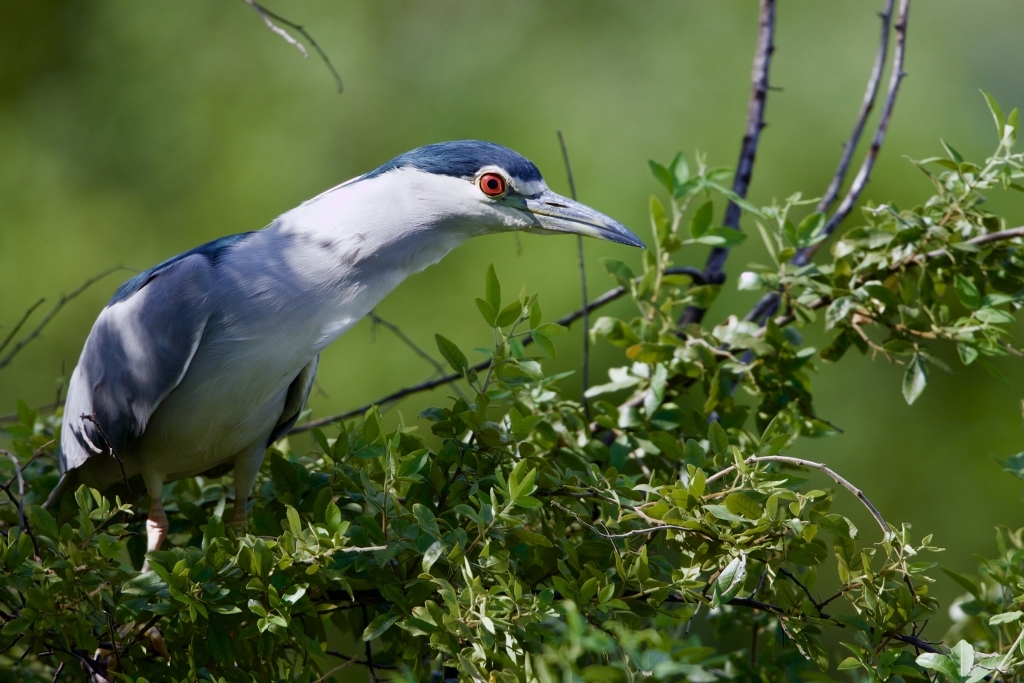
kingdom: Animalia
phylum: Chordata
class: Aves
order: Pelecaniformes
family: Ardeidae
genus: Nycticorax
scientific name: Nycticorax nycticorax
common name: Black-crowned night heron
